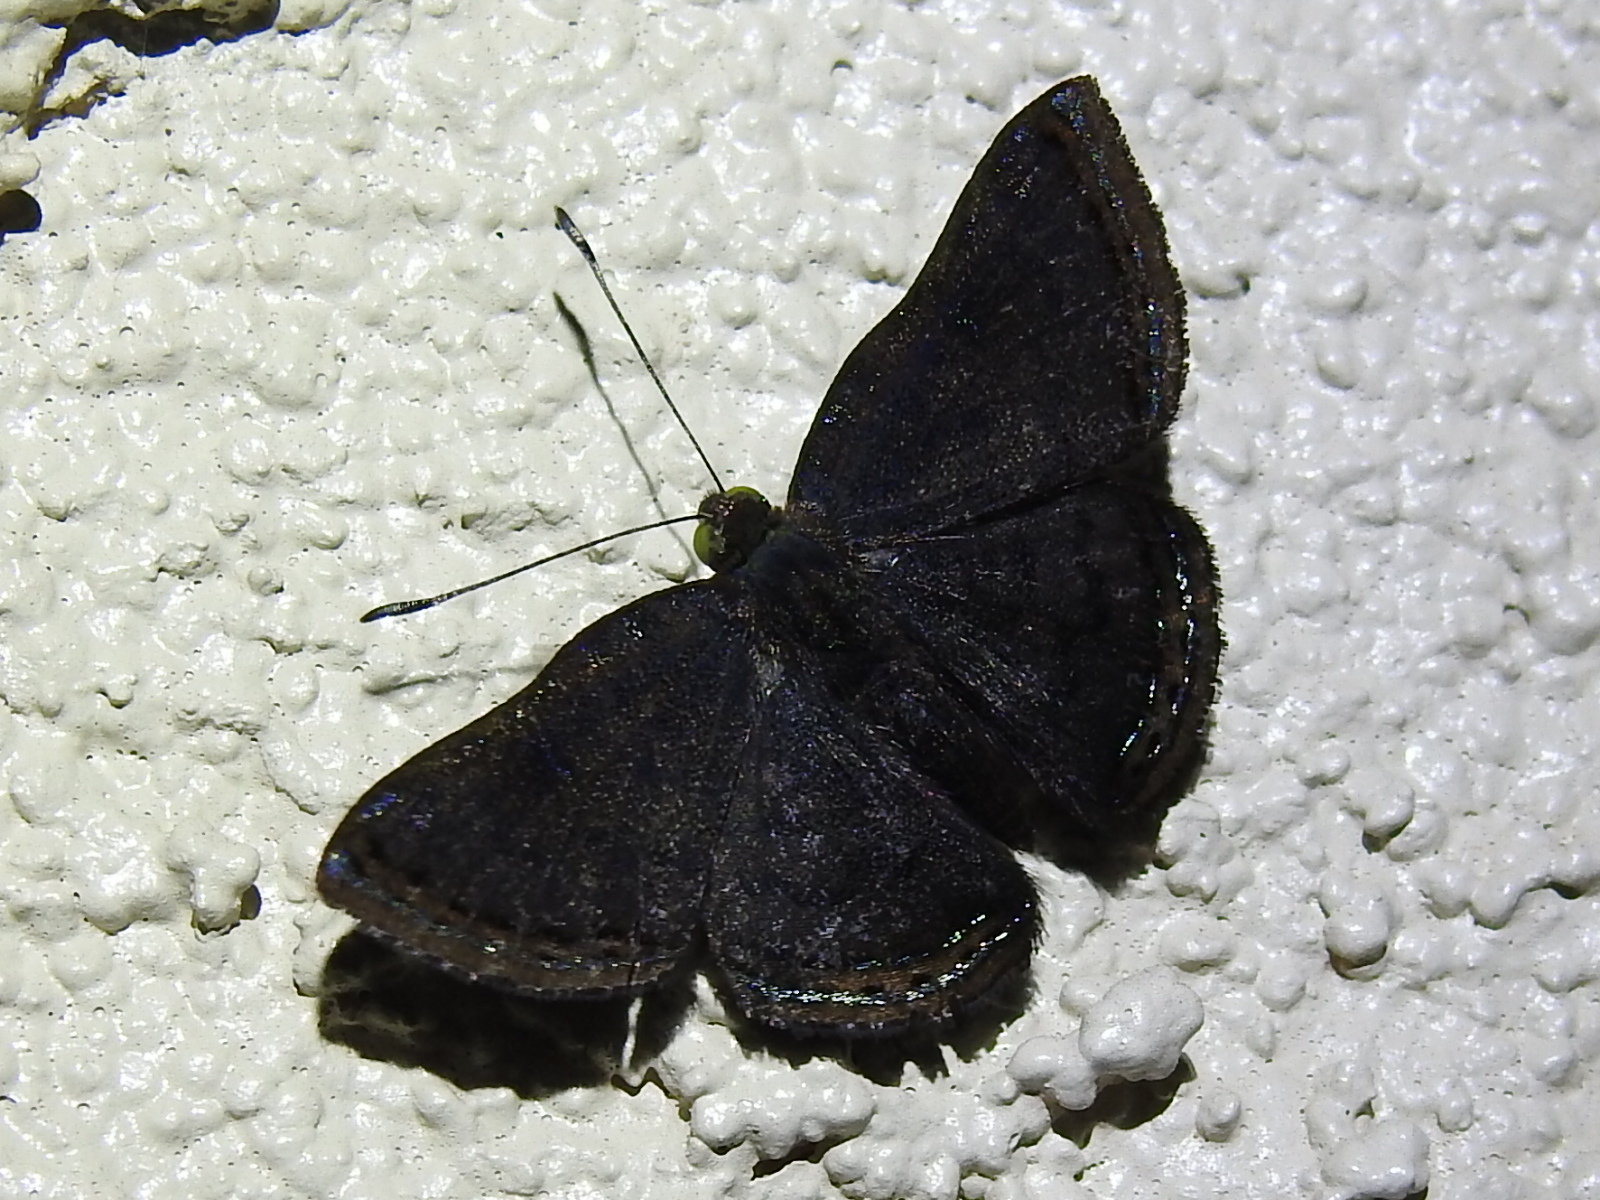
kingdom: Animalia
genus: Caria
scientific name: Caria ino
